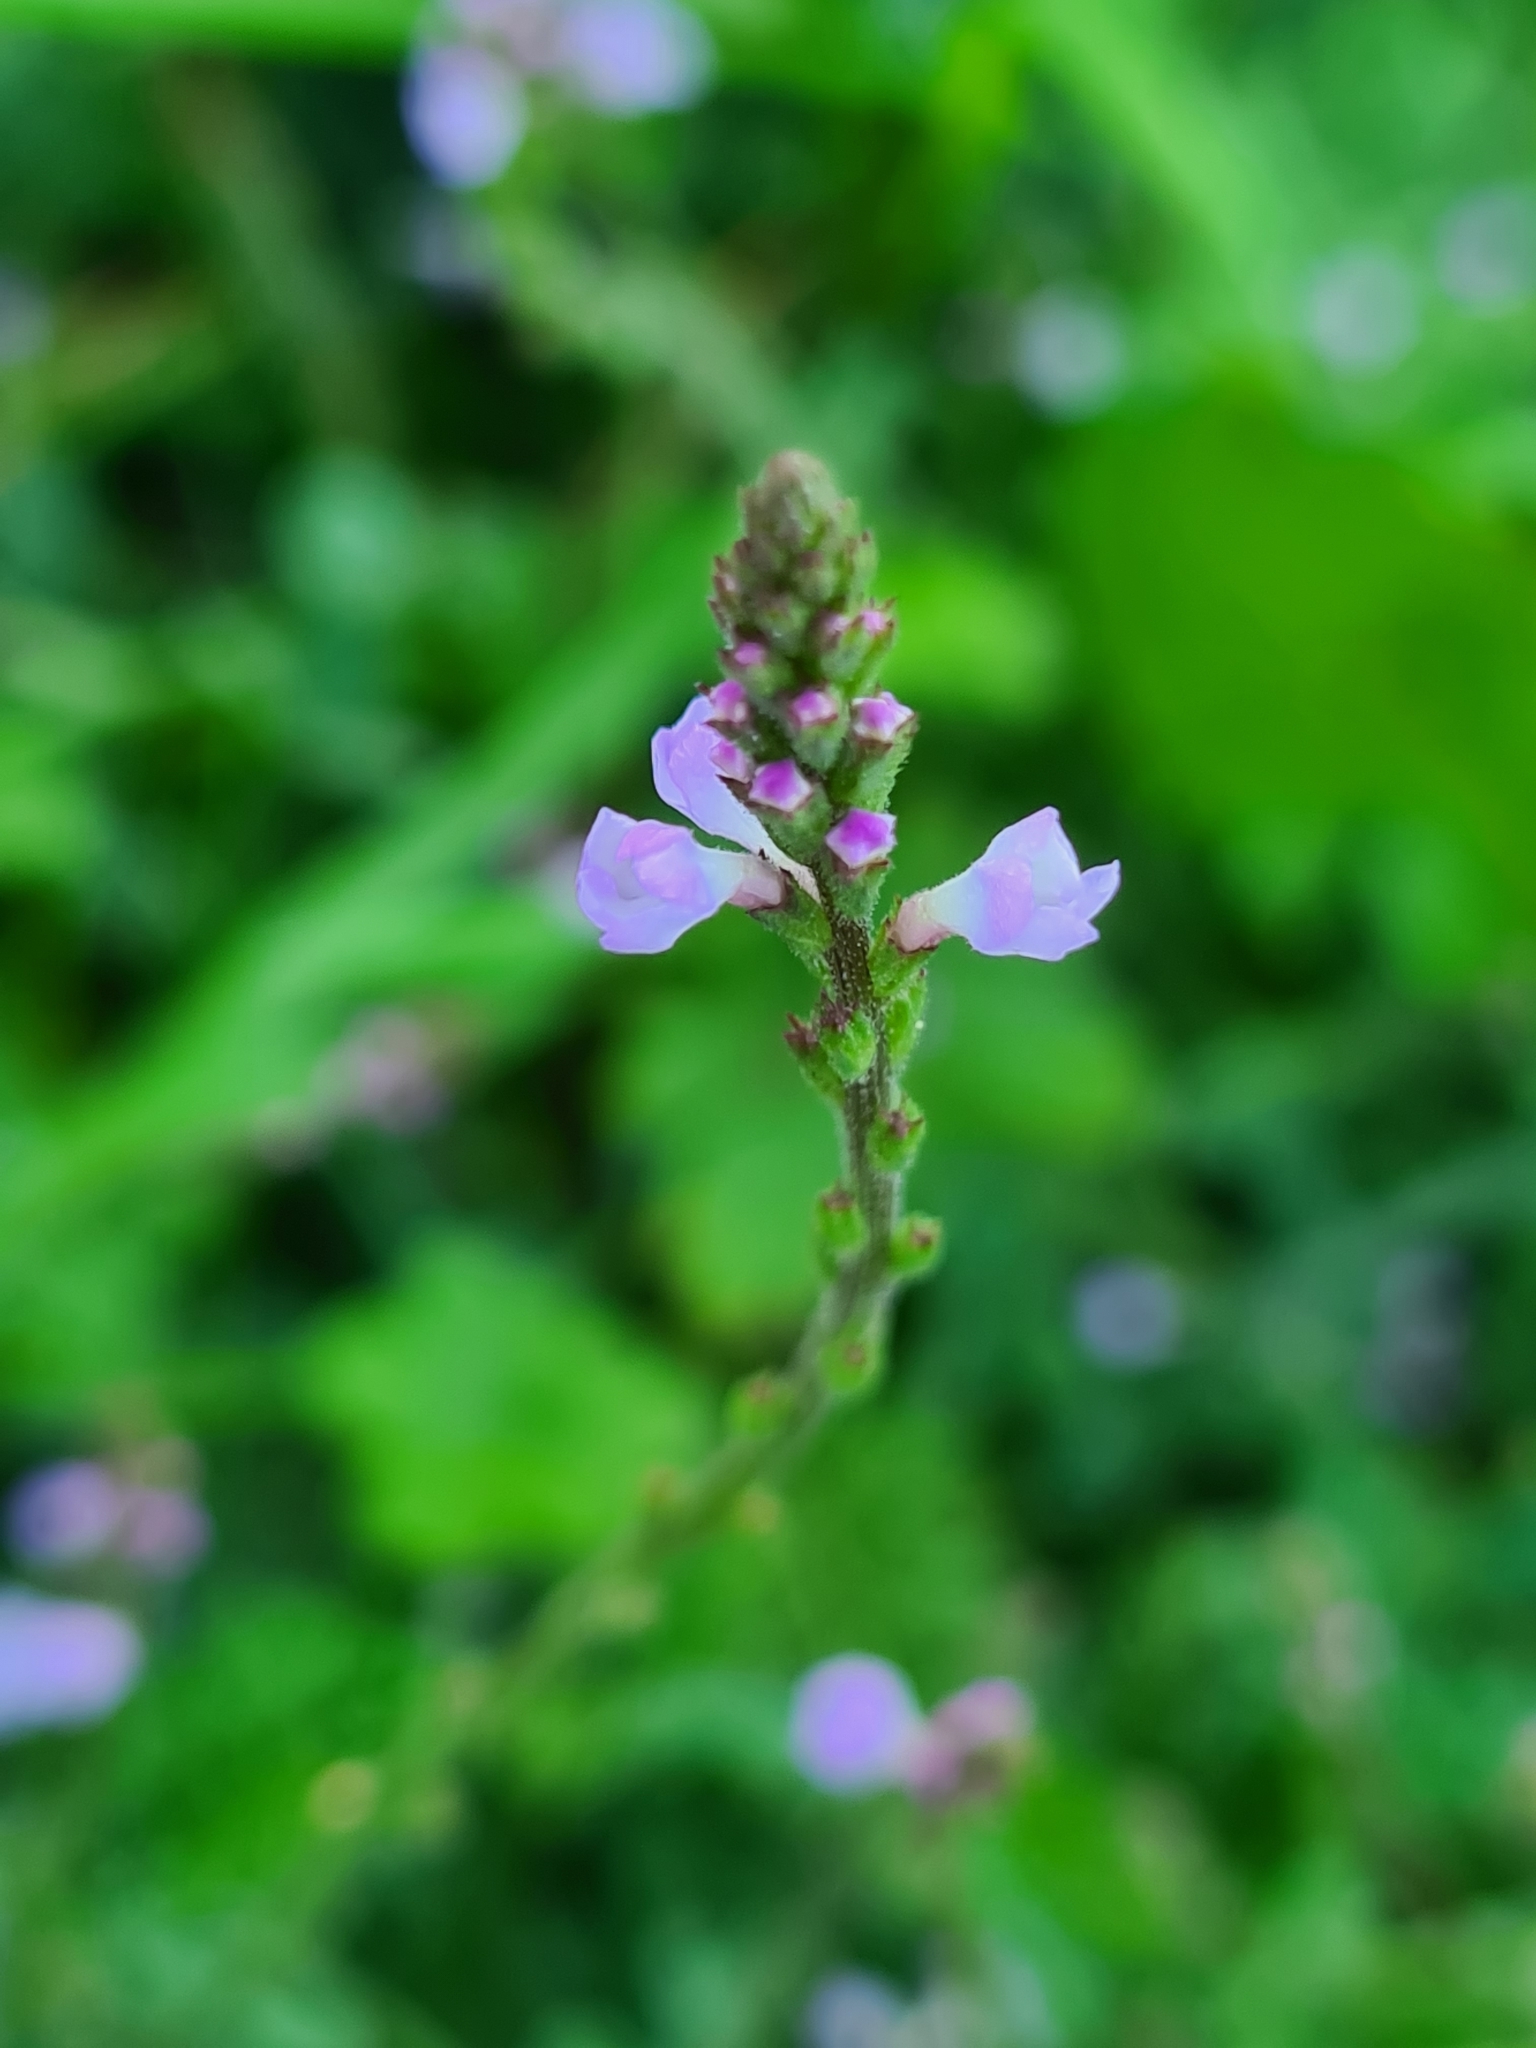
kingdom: Plantae
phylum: Tracheophyta
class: Magnoliopsida
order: Lamiales
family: Verbenaceae
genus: Verbena
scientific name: Verbena officinalis
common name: Vervain
